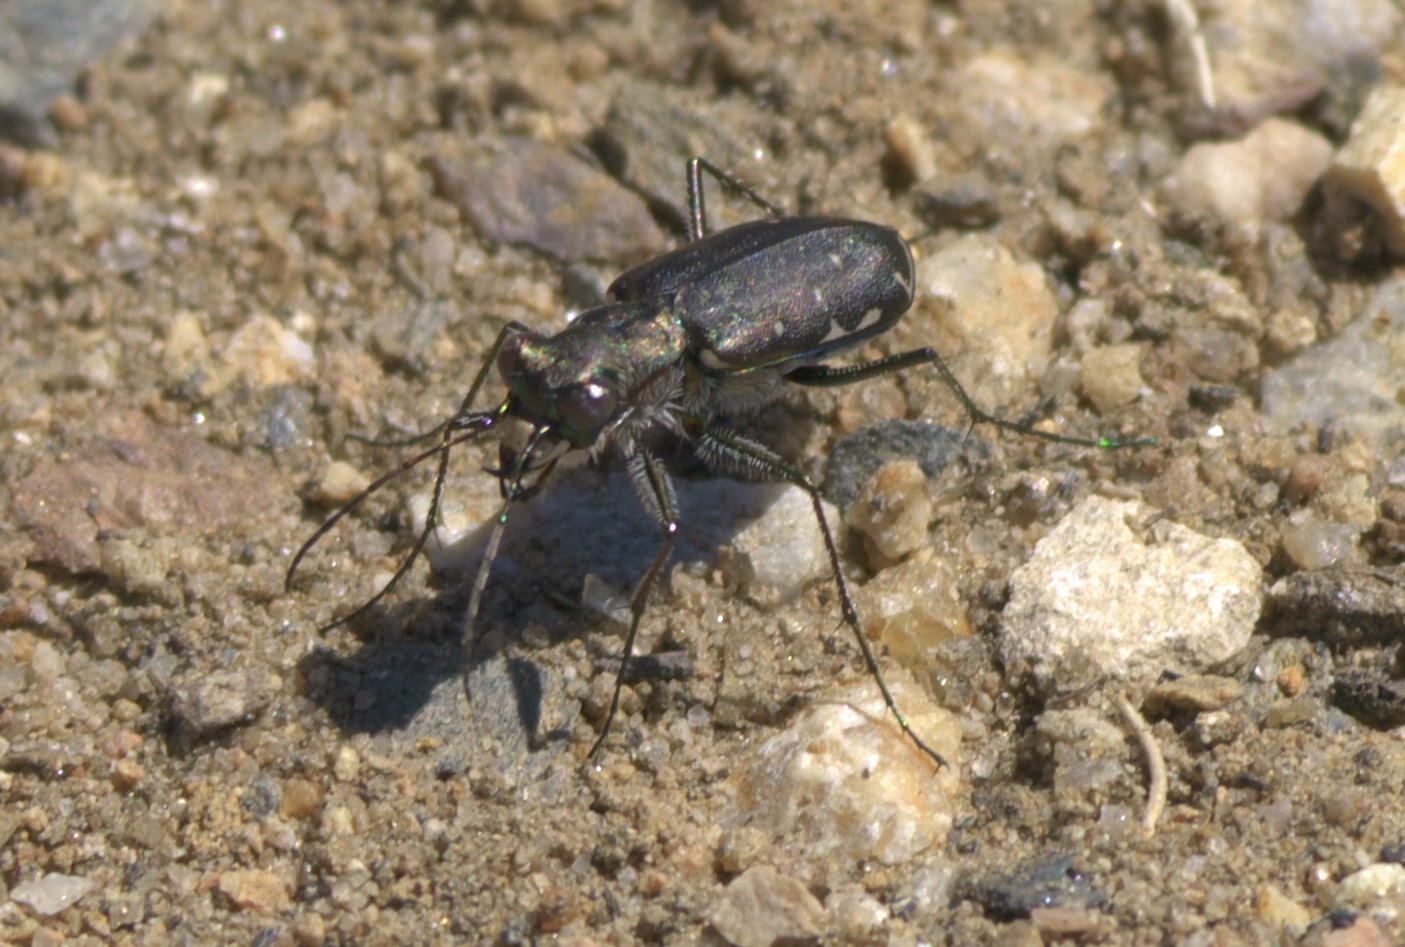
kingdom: Animalia
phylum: Arthropoda
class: Insecta
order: Coleoptera
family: Carabidae
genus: Cicindela
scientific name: Cicindela punctulata
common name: Punctured tiger beetle
